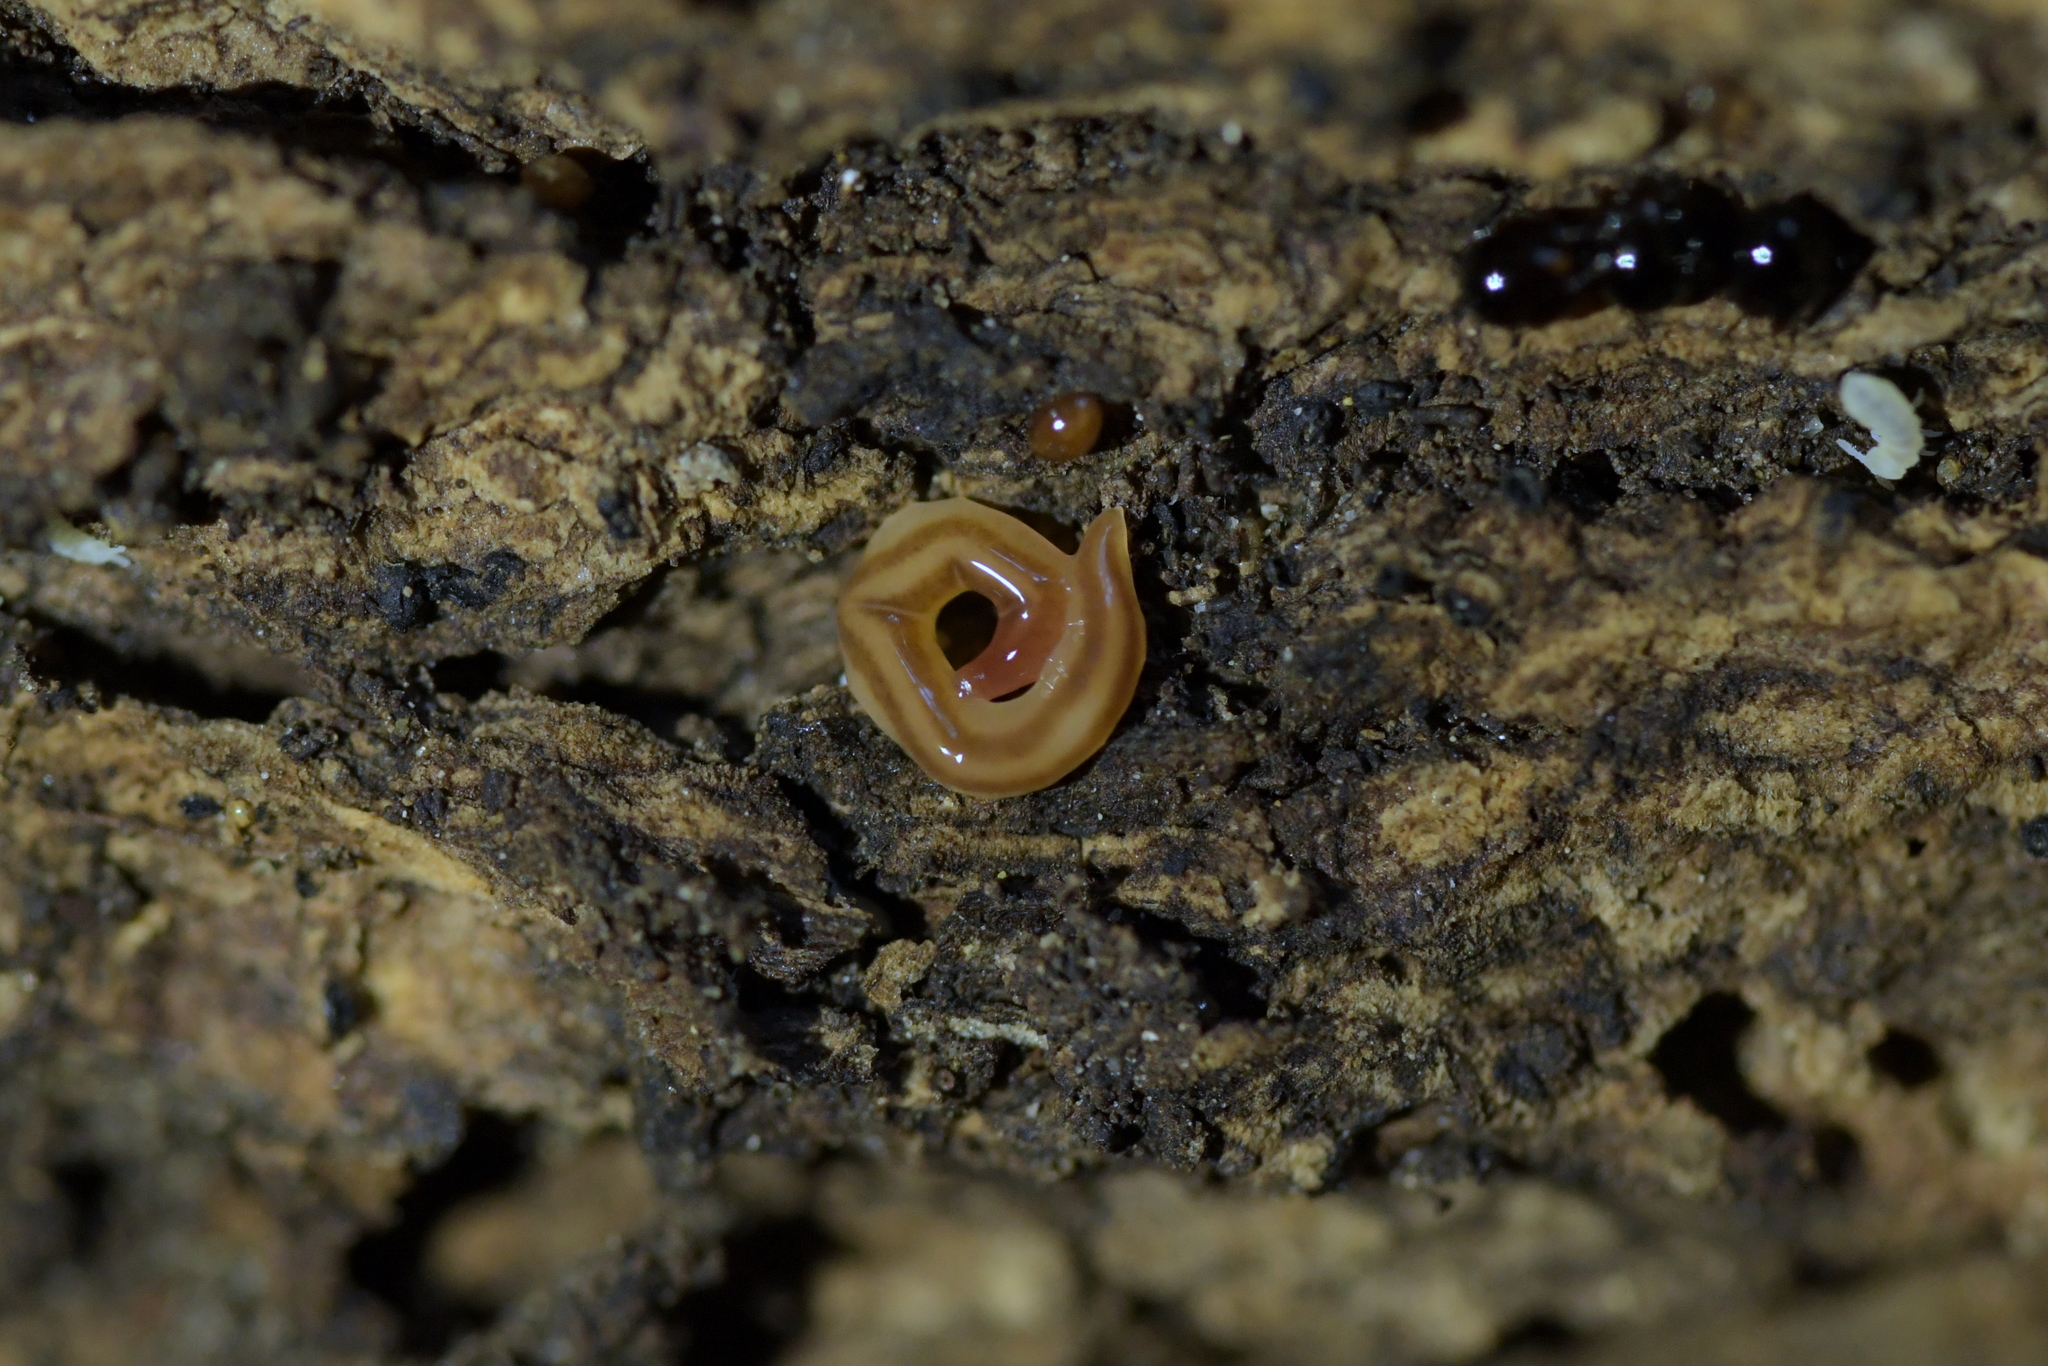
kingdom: Animalia
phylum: Platyhelminthes
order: Tricladida
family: Geoplanidae
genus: Australopacifica
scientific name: Australopacifica alfordensis
